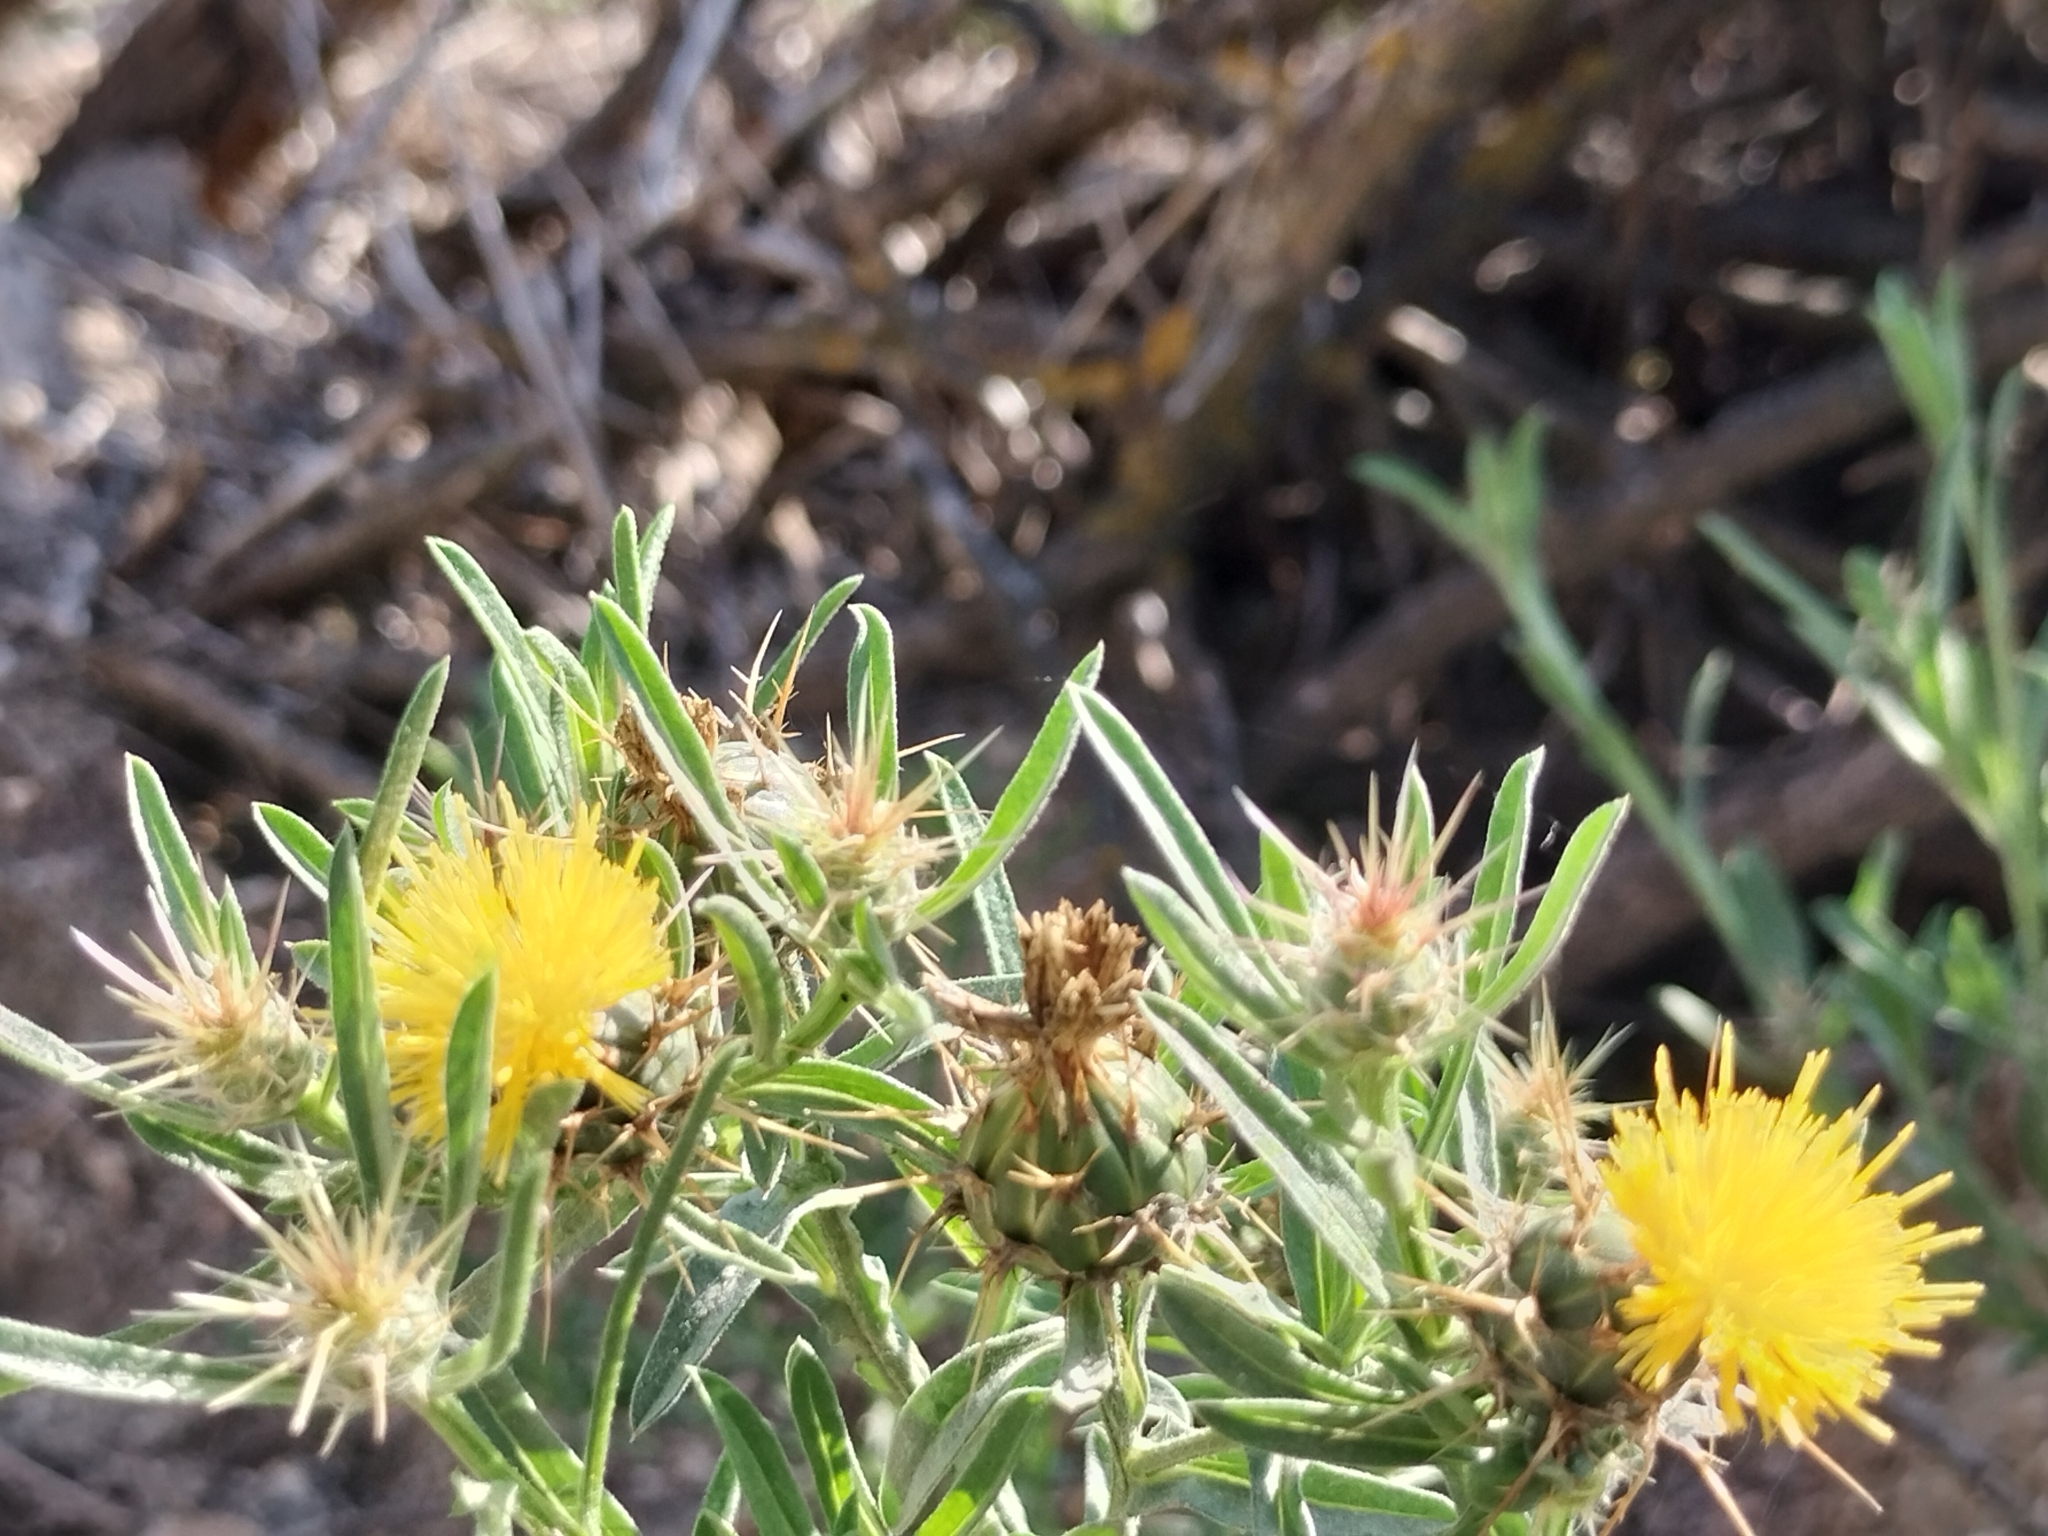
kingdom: Plantae
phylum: Tracheophyta
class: Magnoliopsida
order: Asterales
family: Asteraceae
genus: Centaurea
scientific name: Centaurea melitensis
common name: Maltese star-thistle
